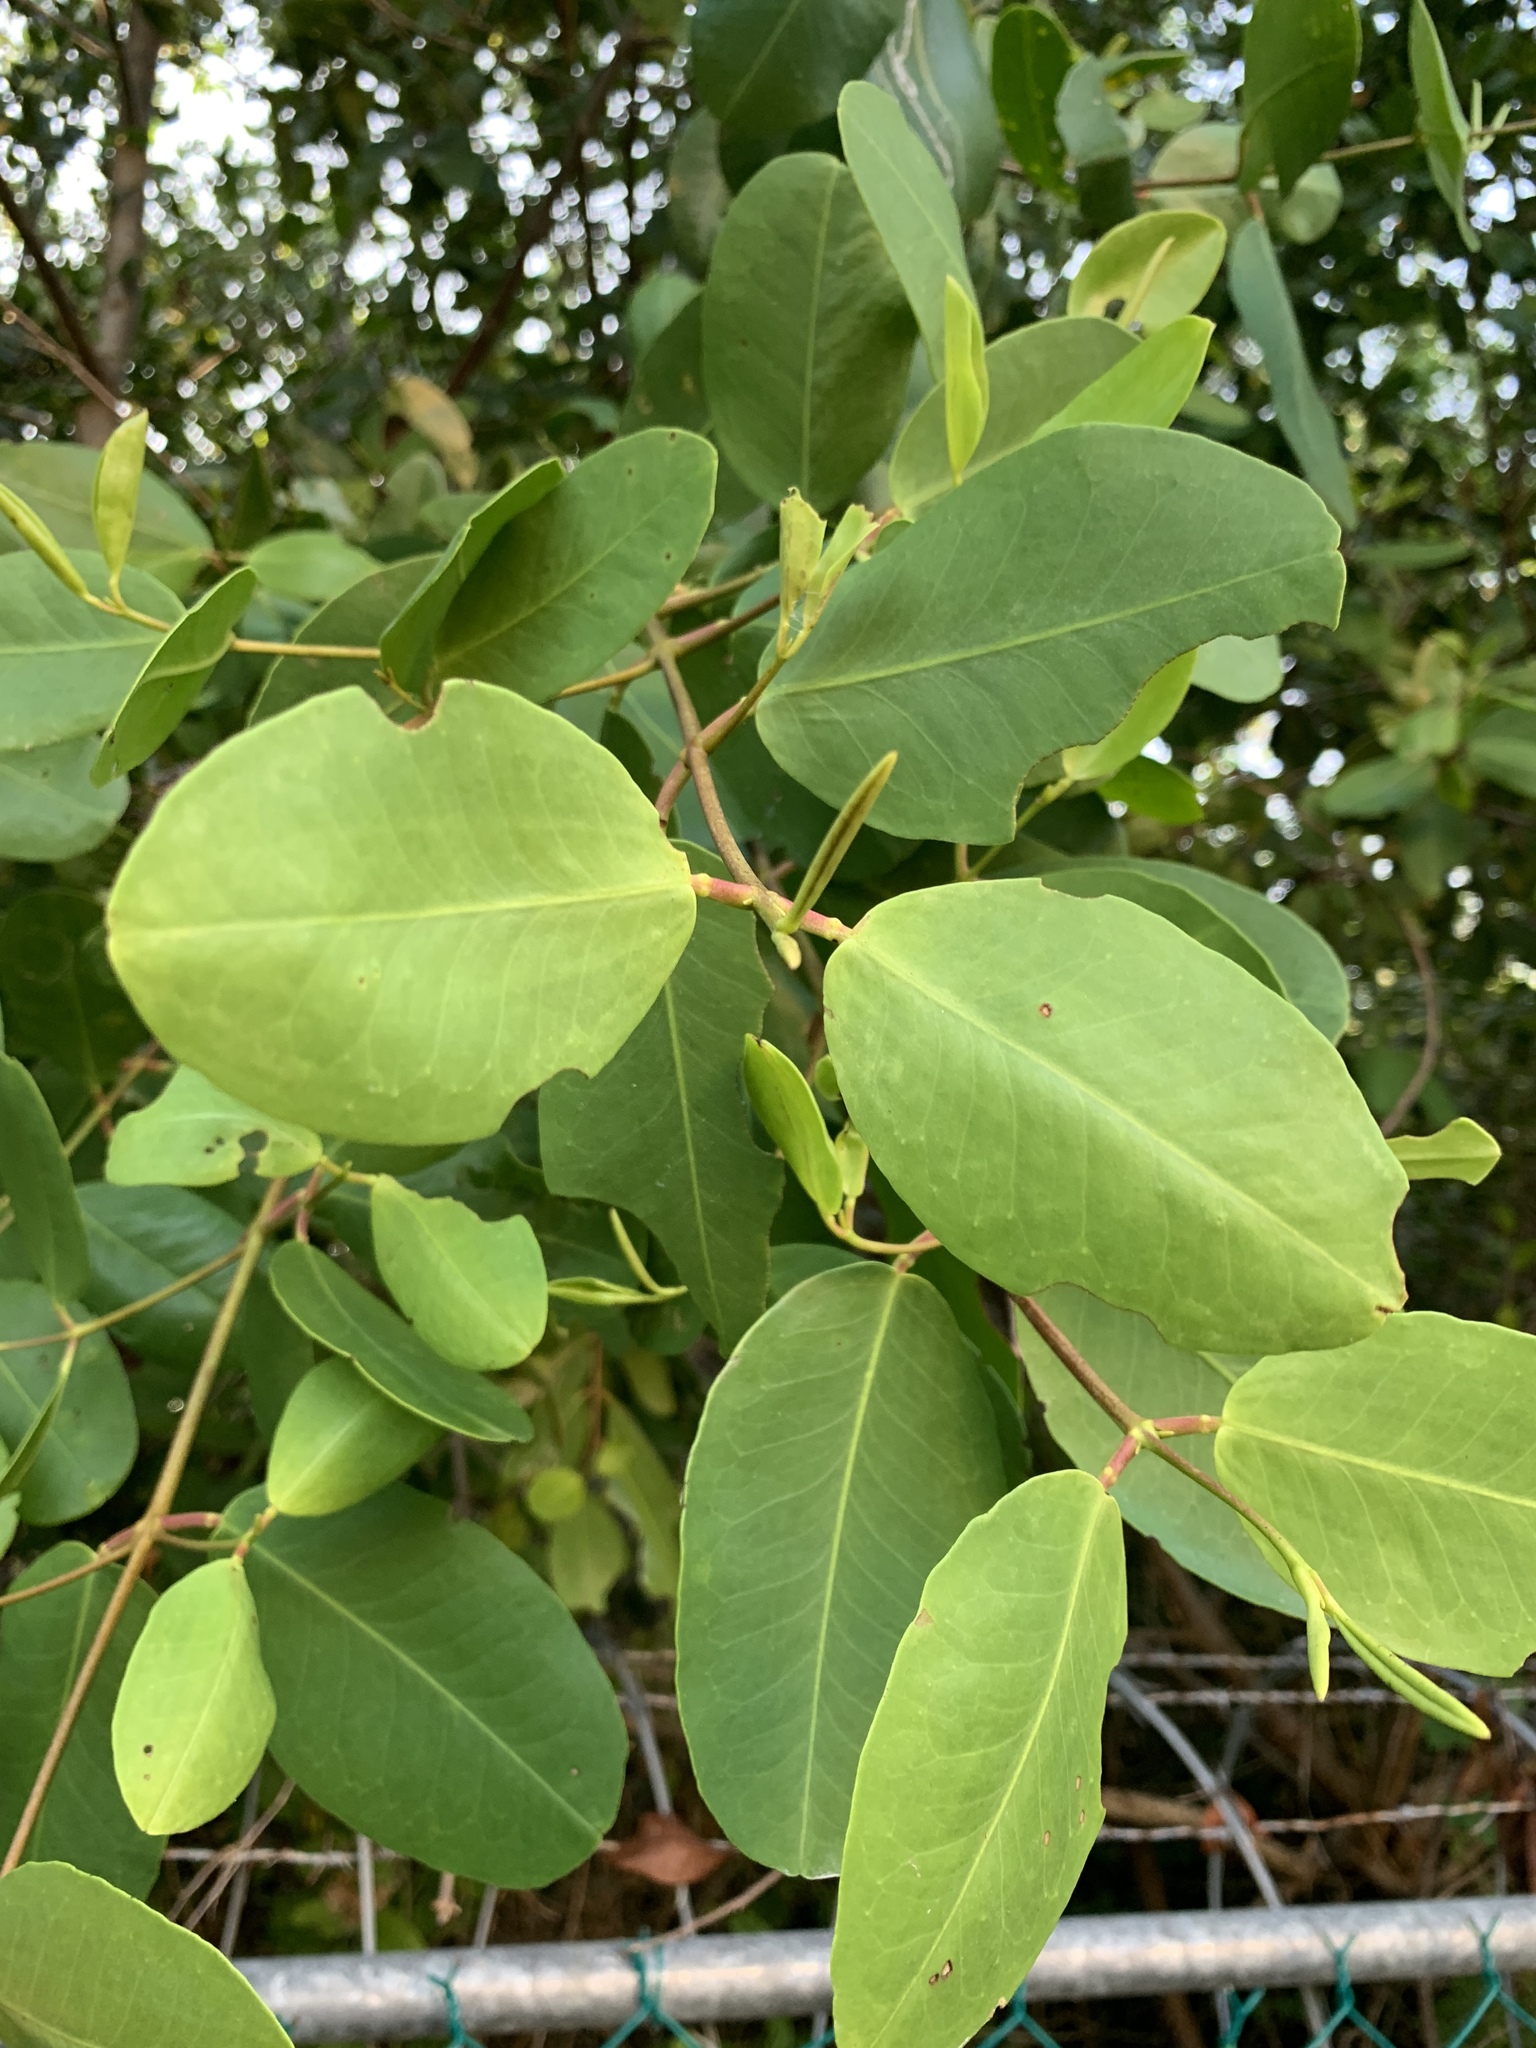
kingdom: Plantae
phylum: Tracheophyta
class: Magnoliopsida
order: Myrtales
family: Combretaceae
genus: Laguncularia
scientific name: Laguncularia racemosa
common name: White mangrove
